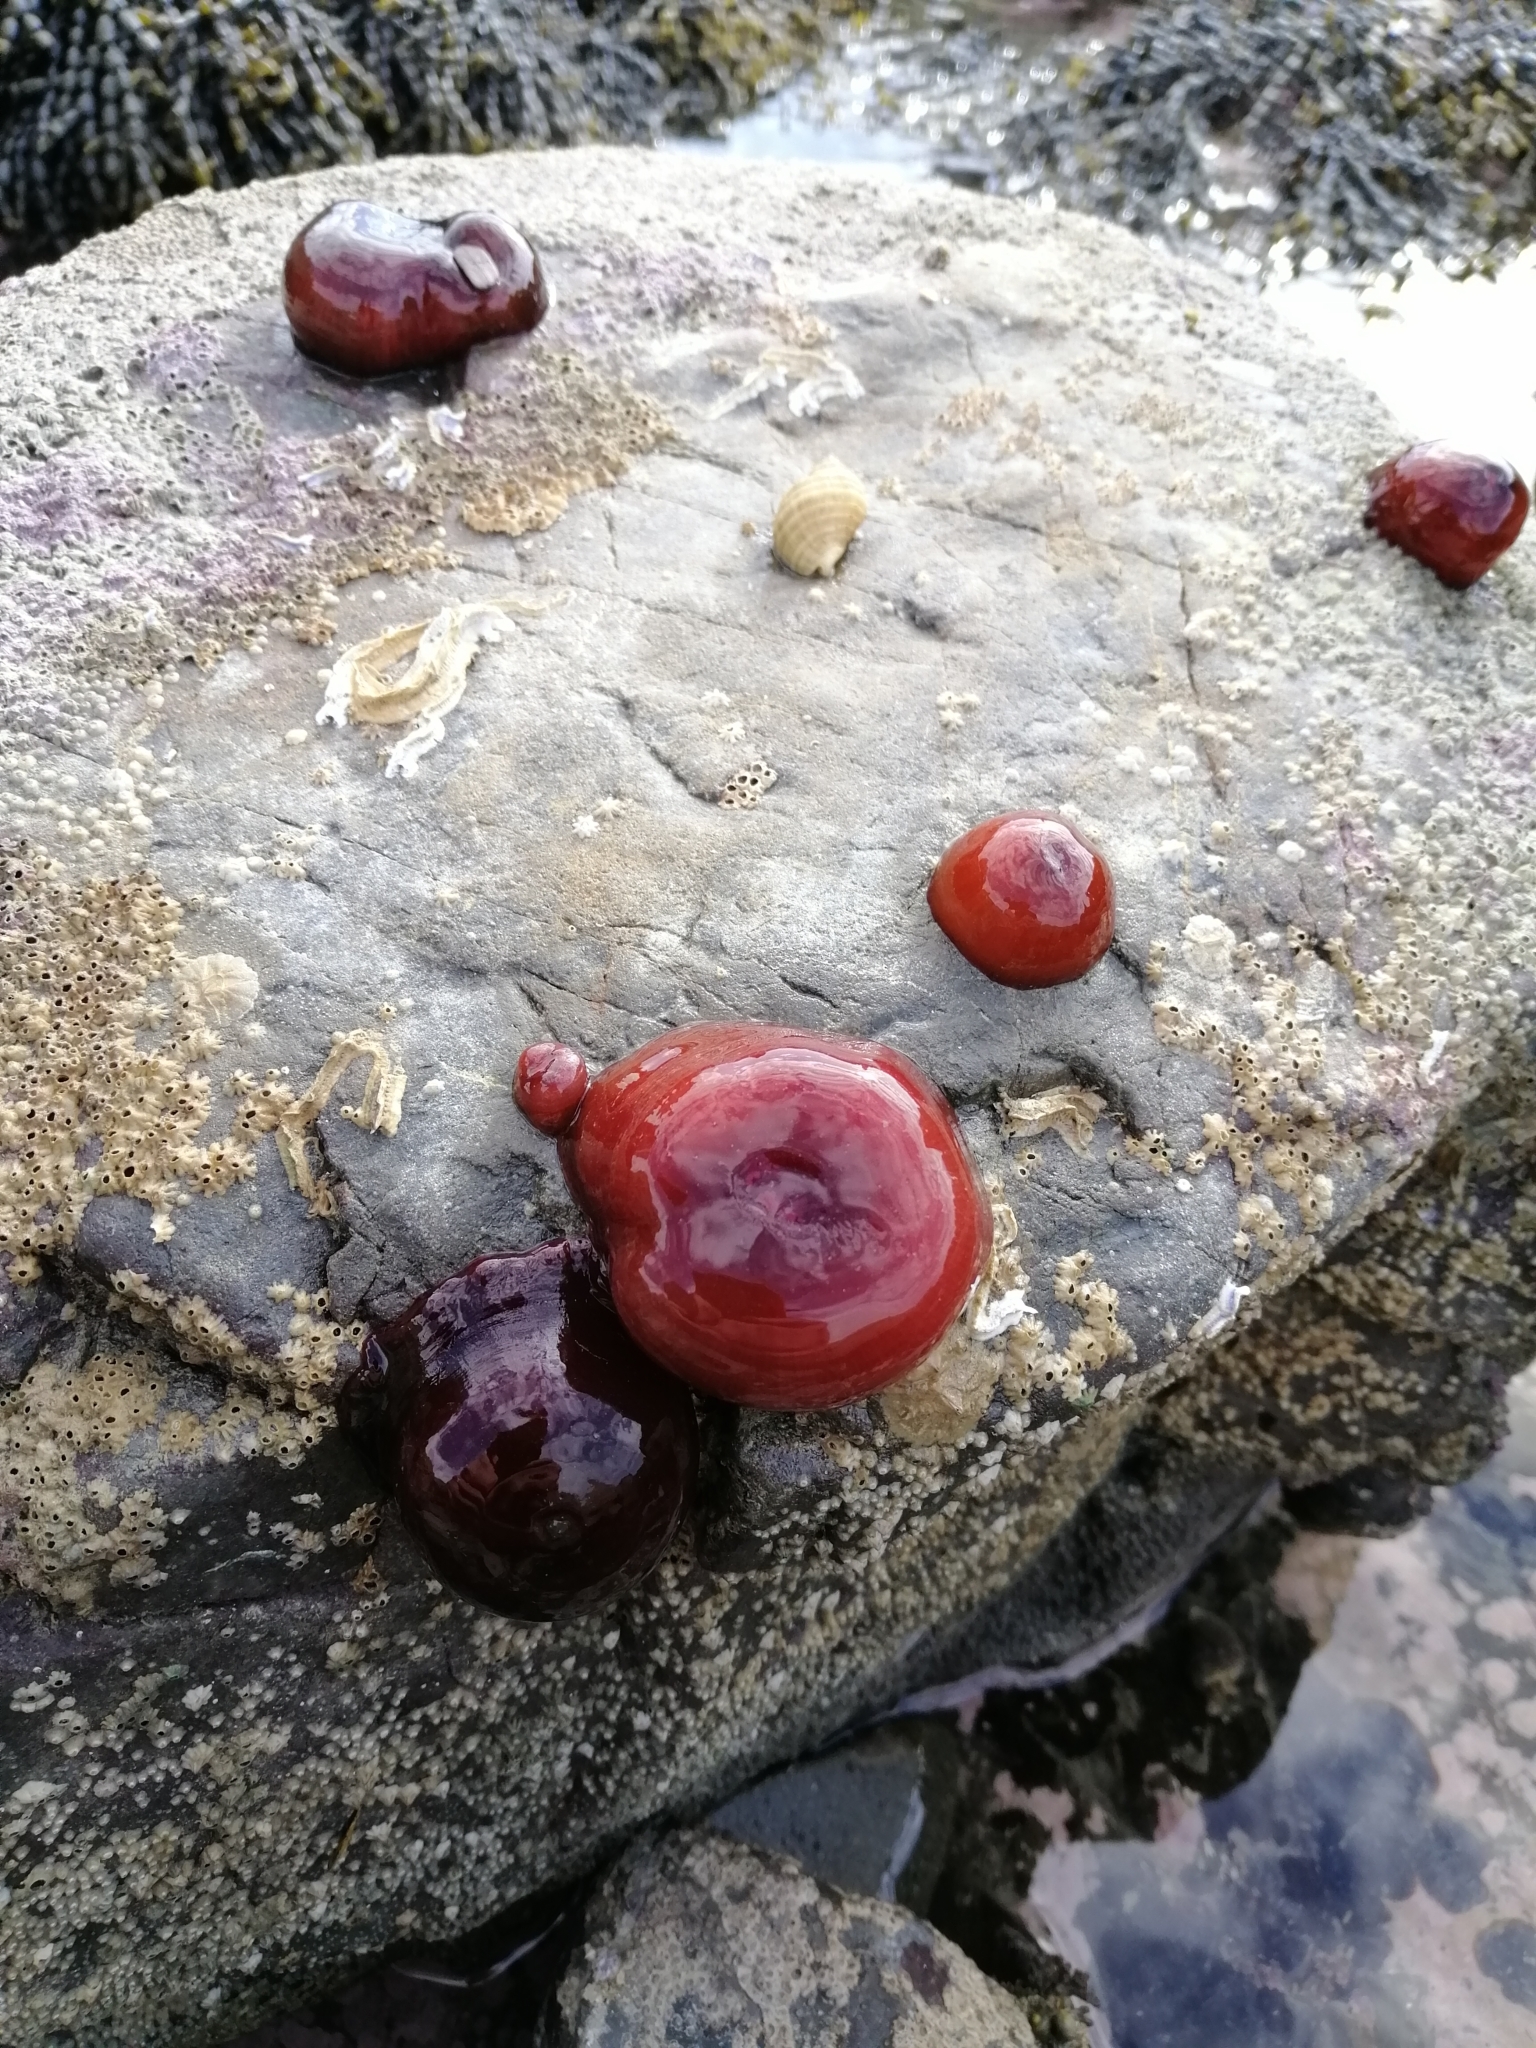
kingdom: Animalia
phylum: Cnidaria
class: Anthozoa
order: Actiniaria
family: Actiniidae
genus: Actinia
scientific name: Actinia tenebrosa
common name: Waratah anemone
